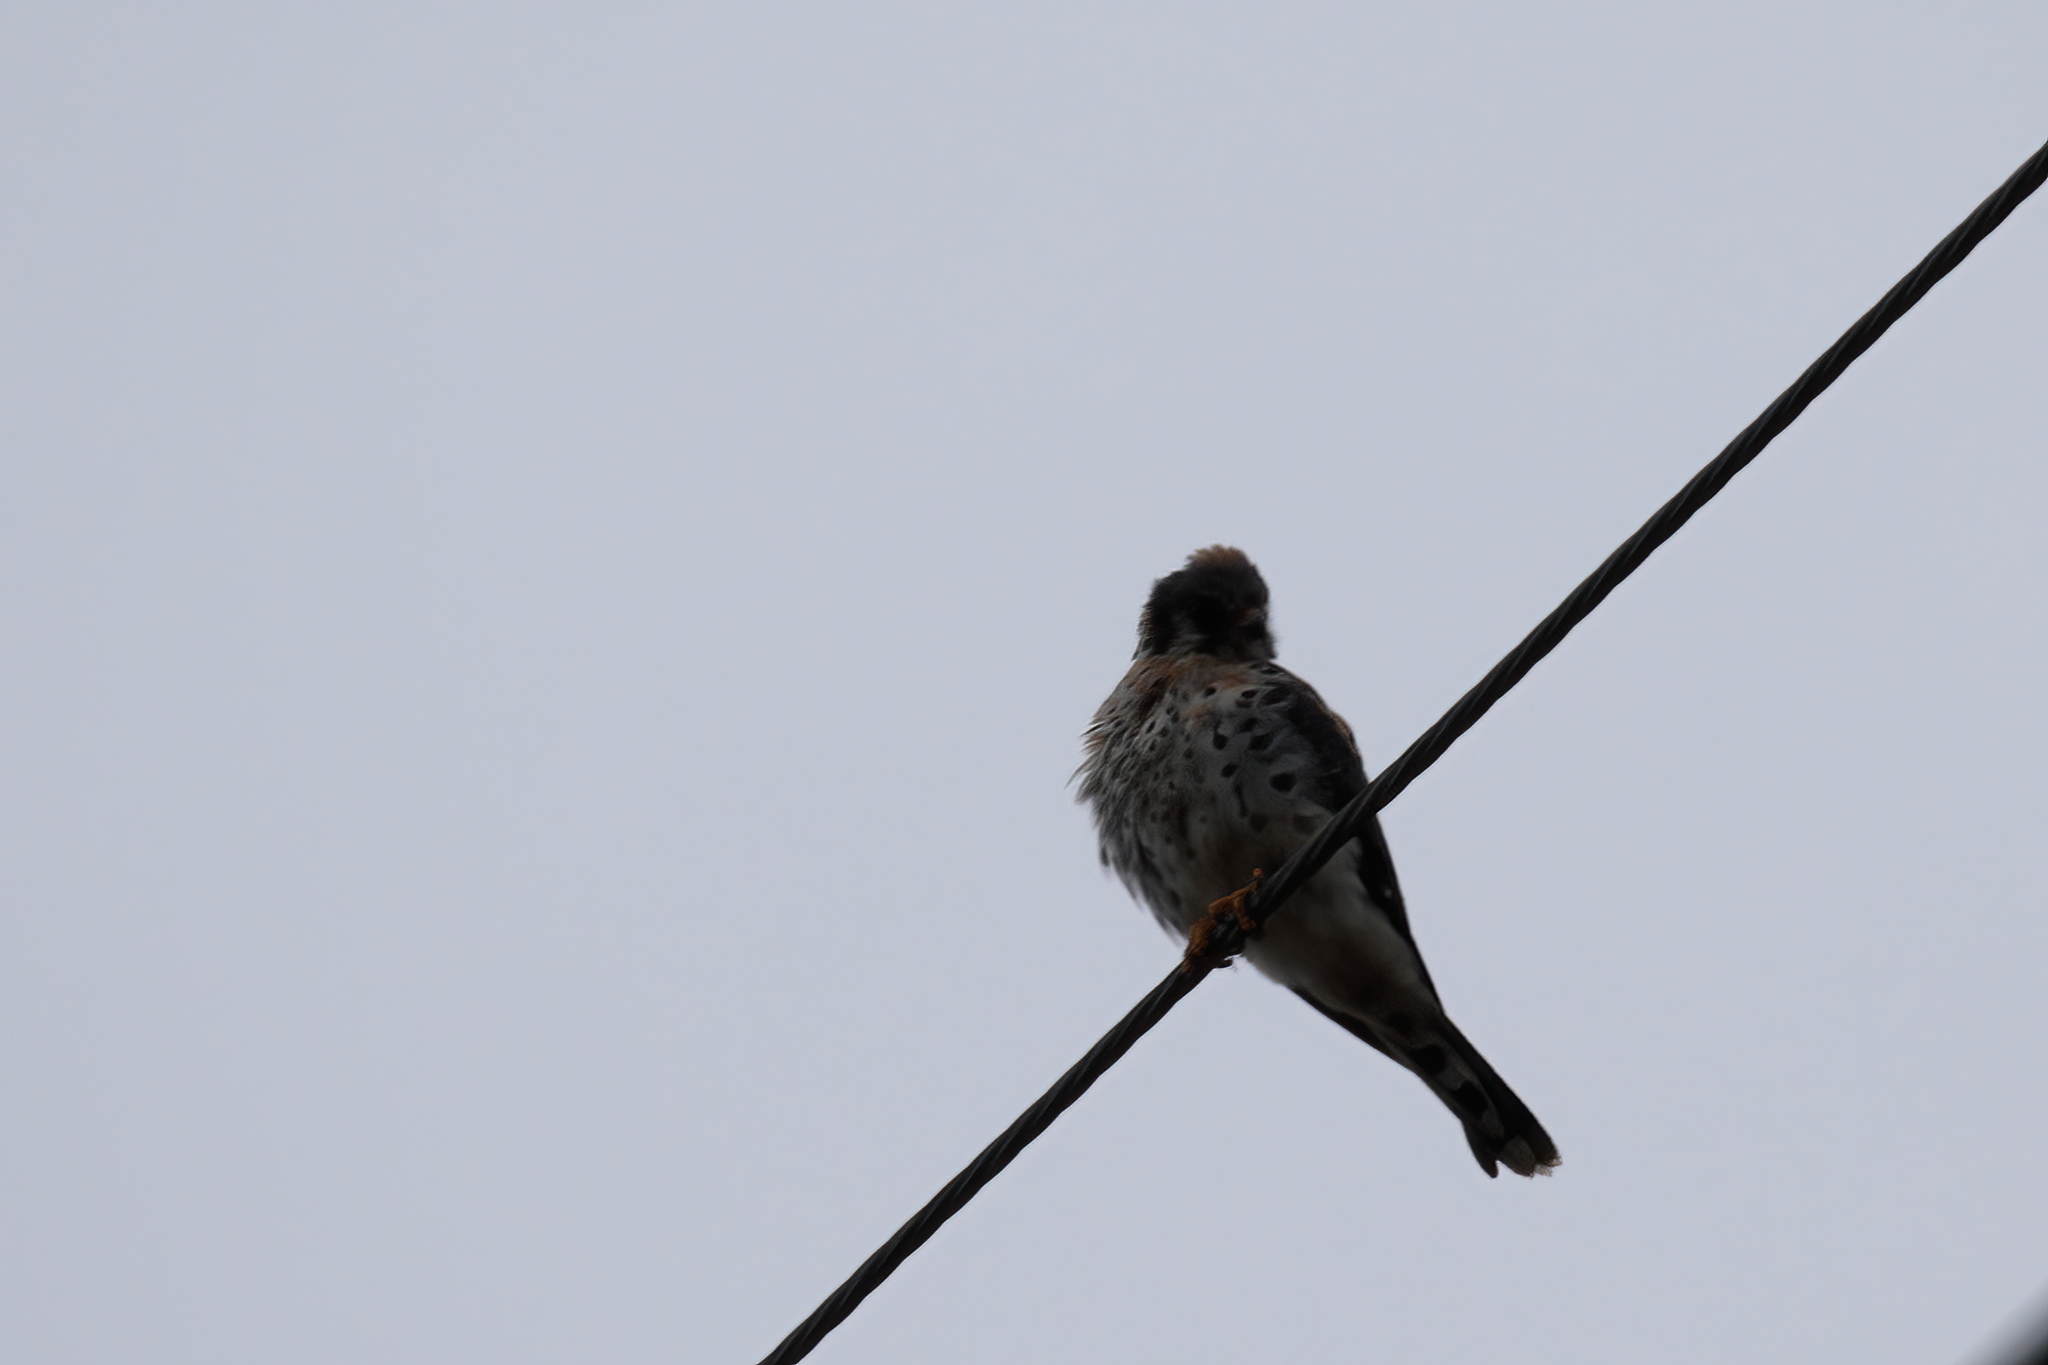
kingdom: Animalia
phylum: Chordata
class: Aves
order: Falconiformes
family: Falconidae
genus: Falco
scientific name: Falco sparverius
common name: American kestrel
